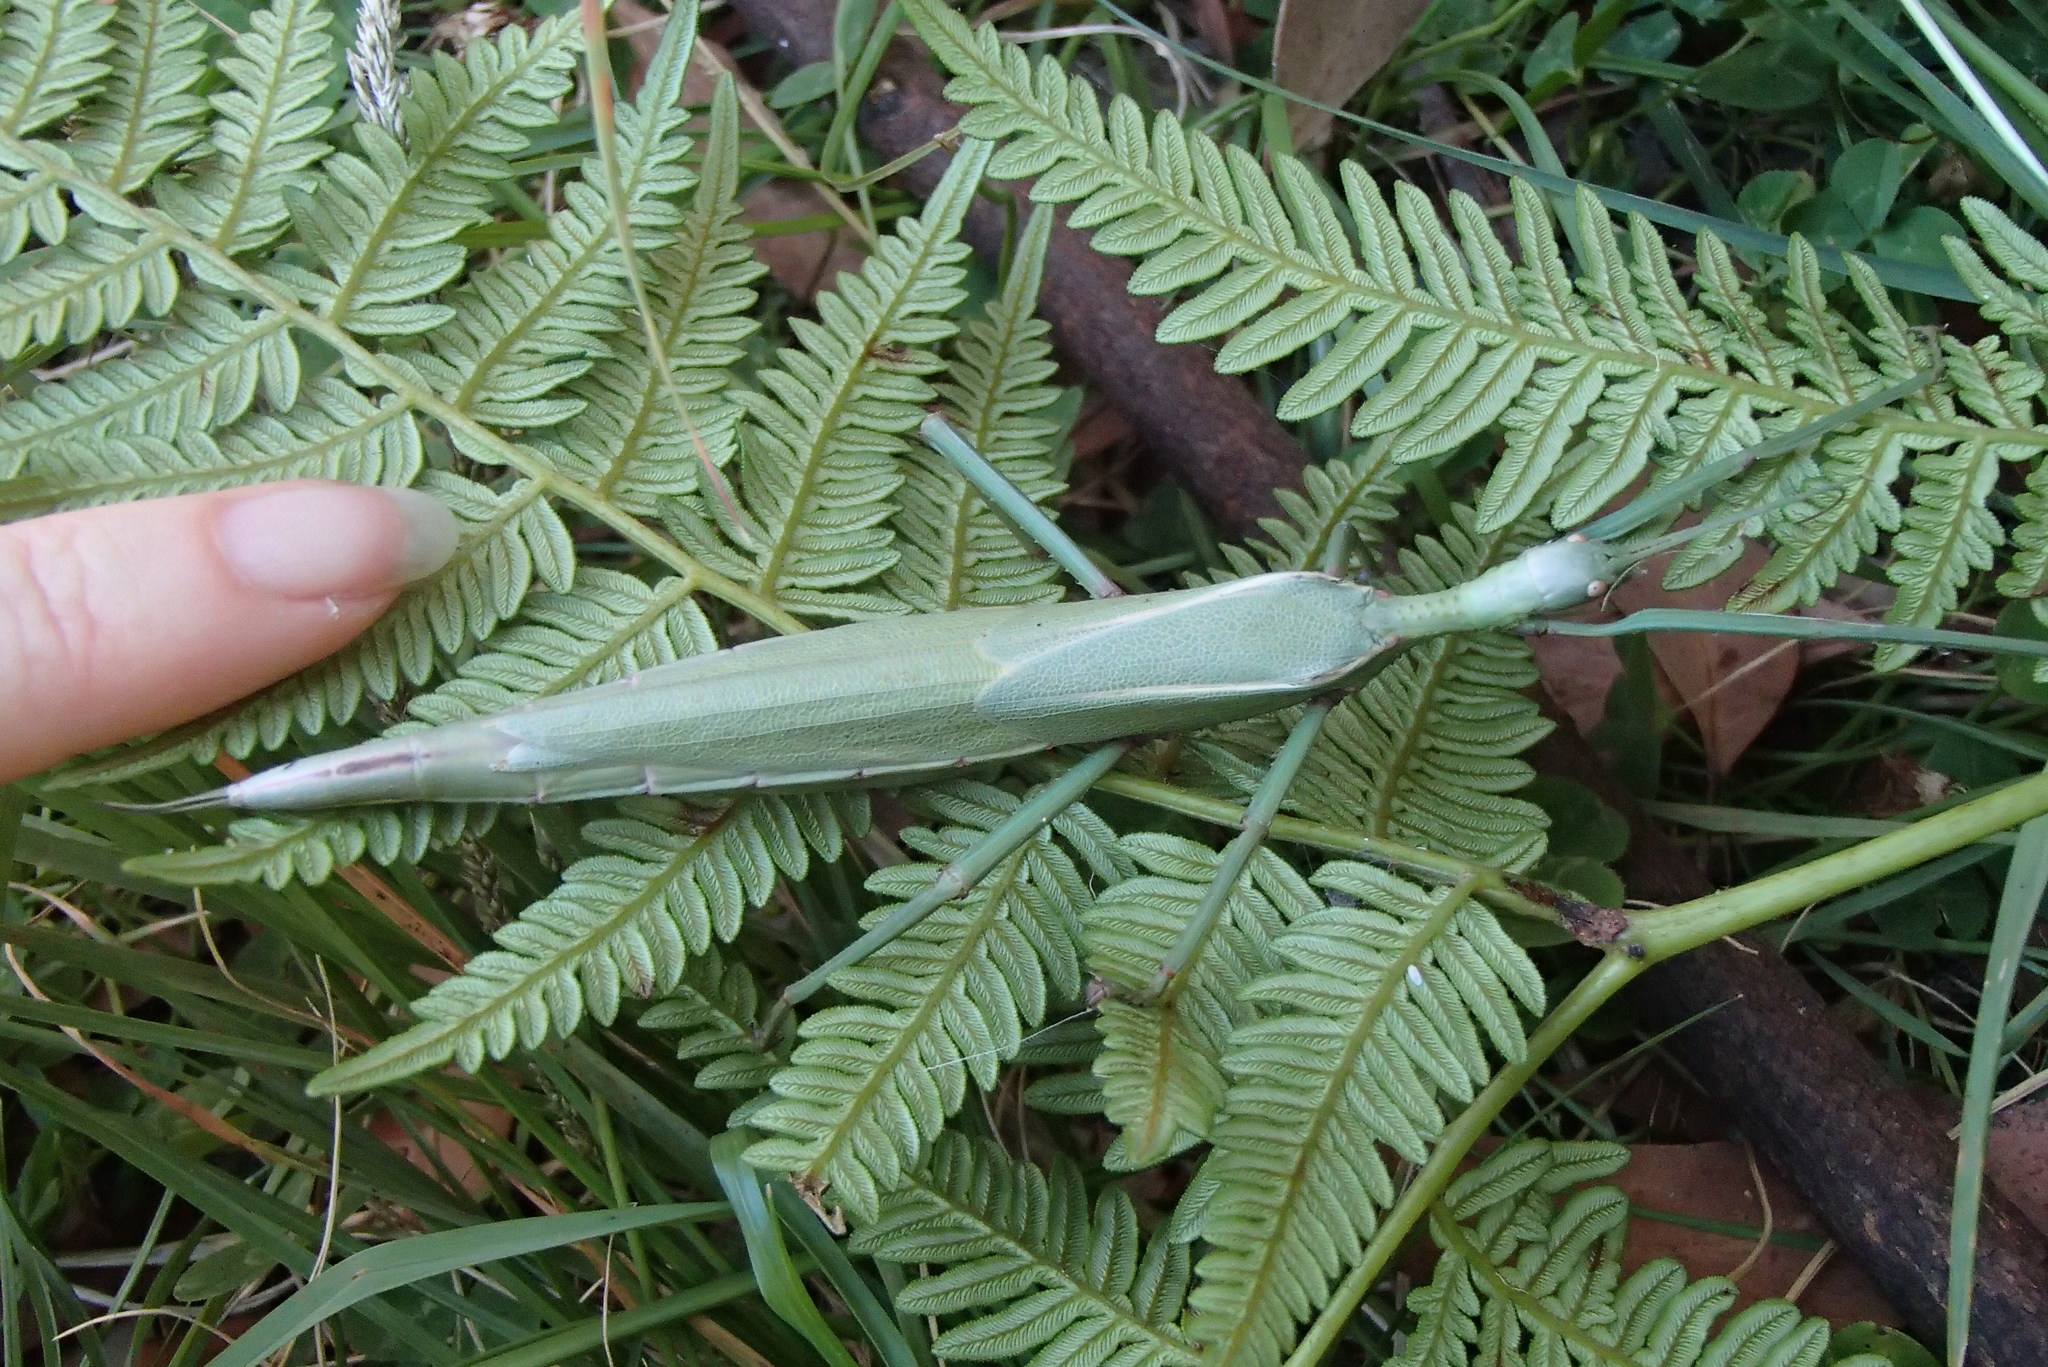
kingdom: Animalia
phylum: Arthropoda
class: Insecta
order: Phasmida
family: Phasmatidae
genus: Podacanthus
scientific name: Podacanthus wilkinsoni
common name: Ringbarker stick-insect
